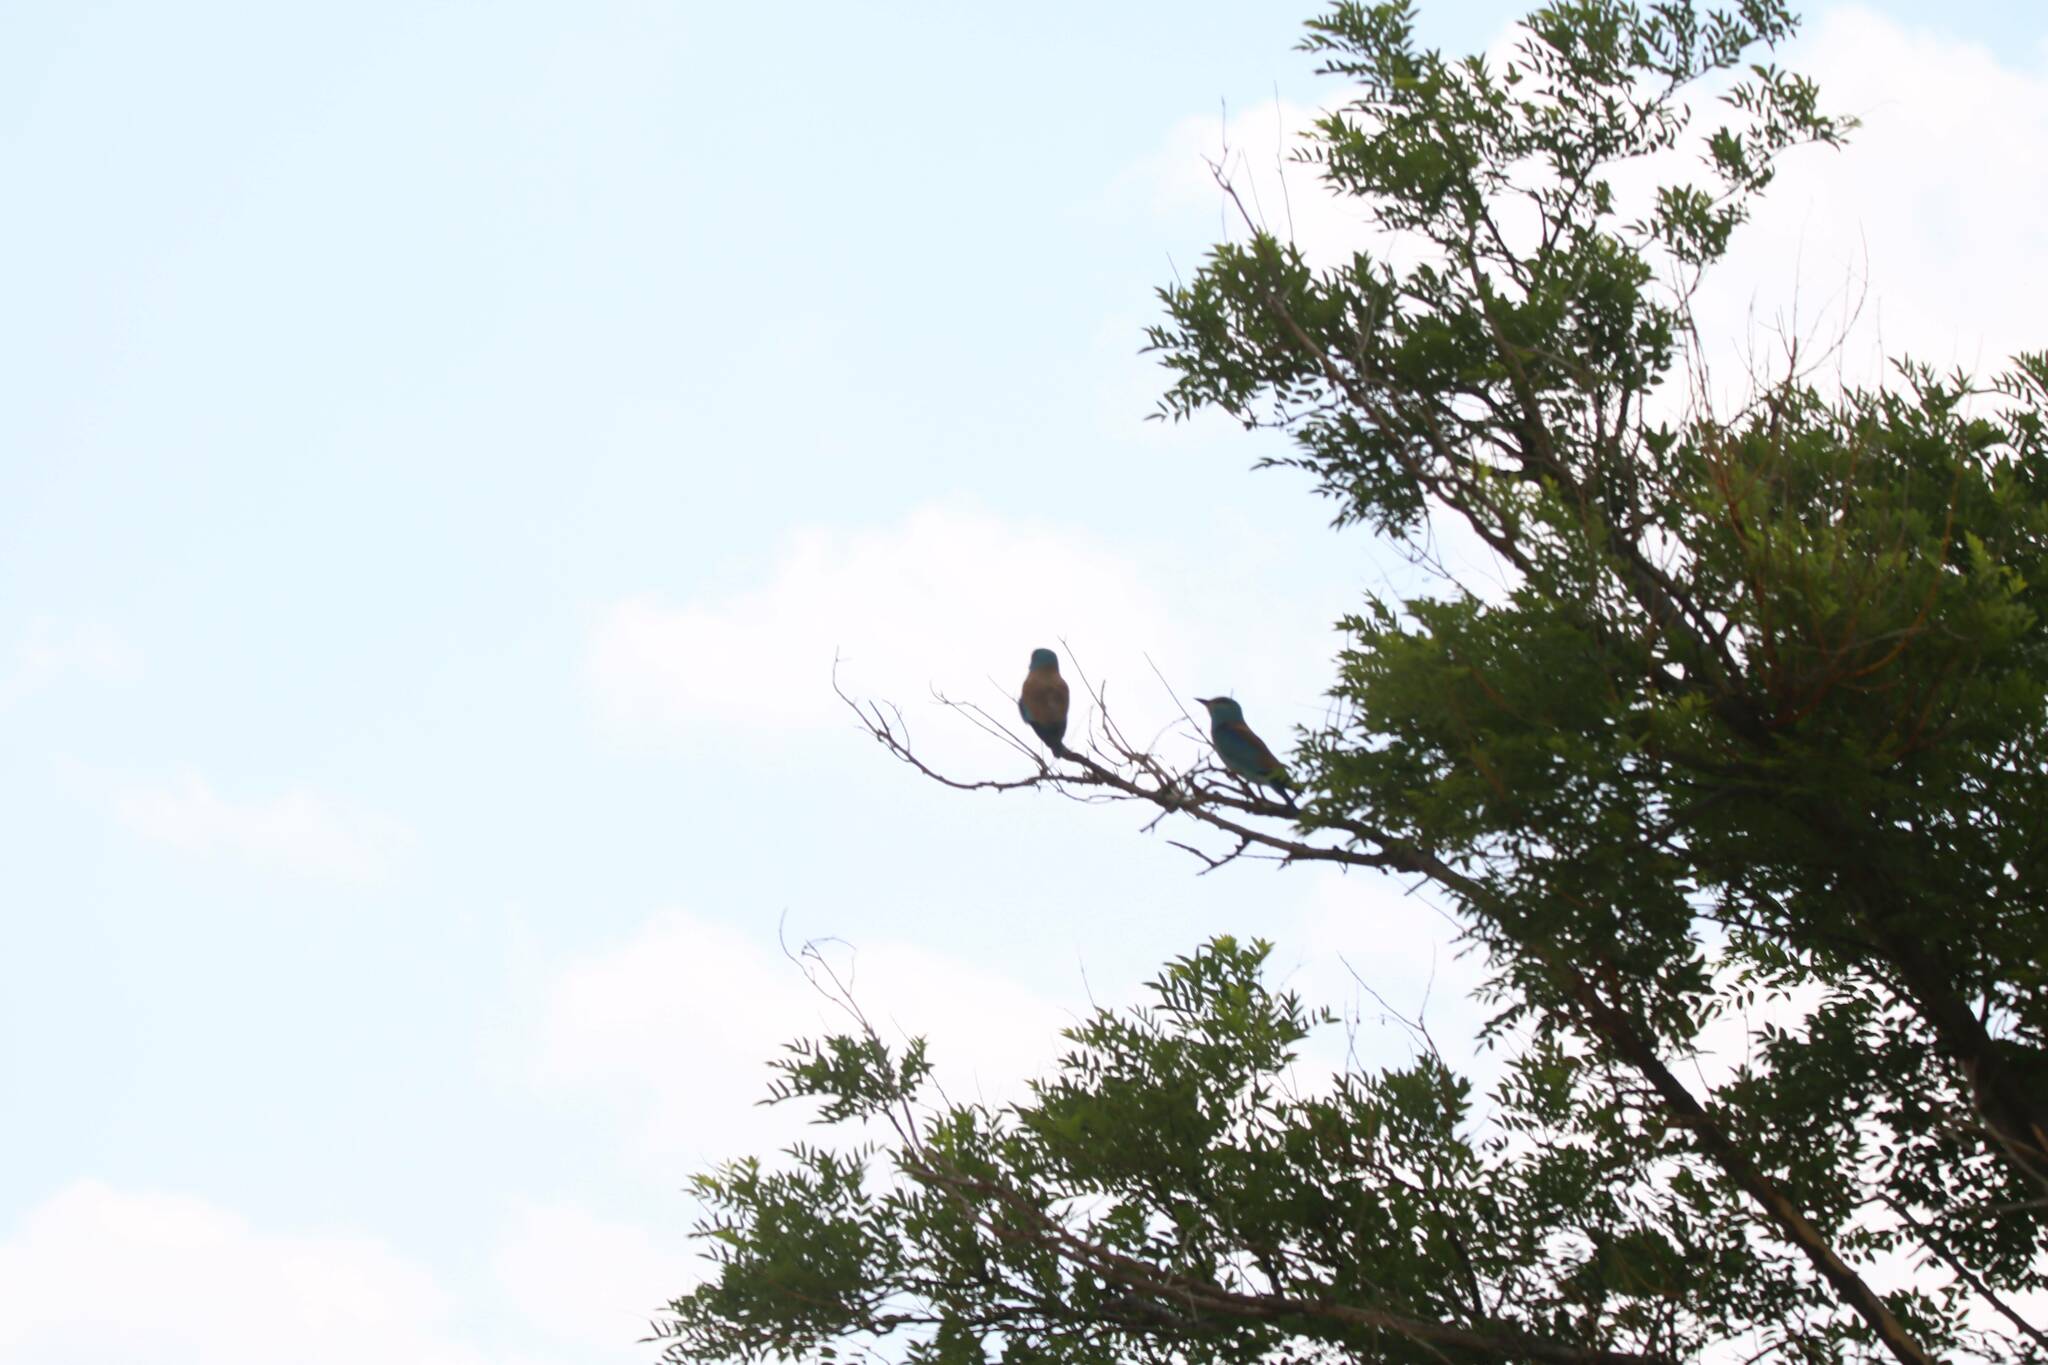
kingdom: Animalia
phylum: Chordata
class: Aves
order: Coraciiformes
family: Coraciidae
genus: Coracias
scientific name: Coracias garrulus
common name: European roller
